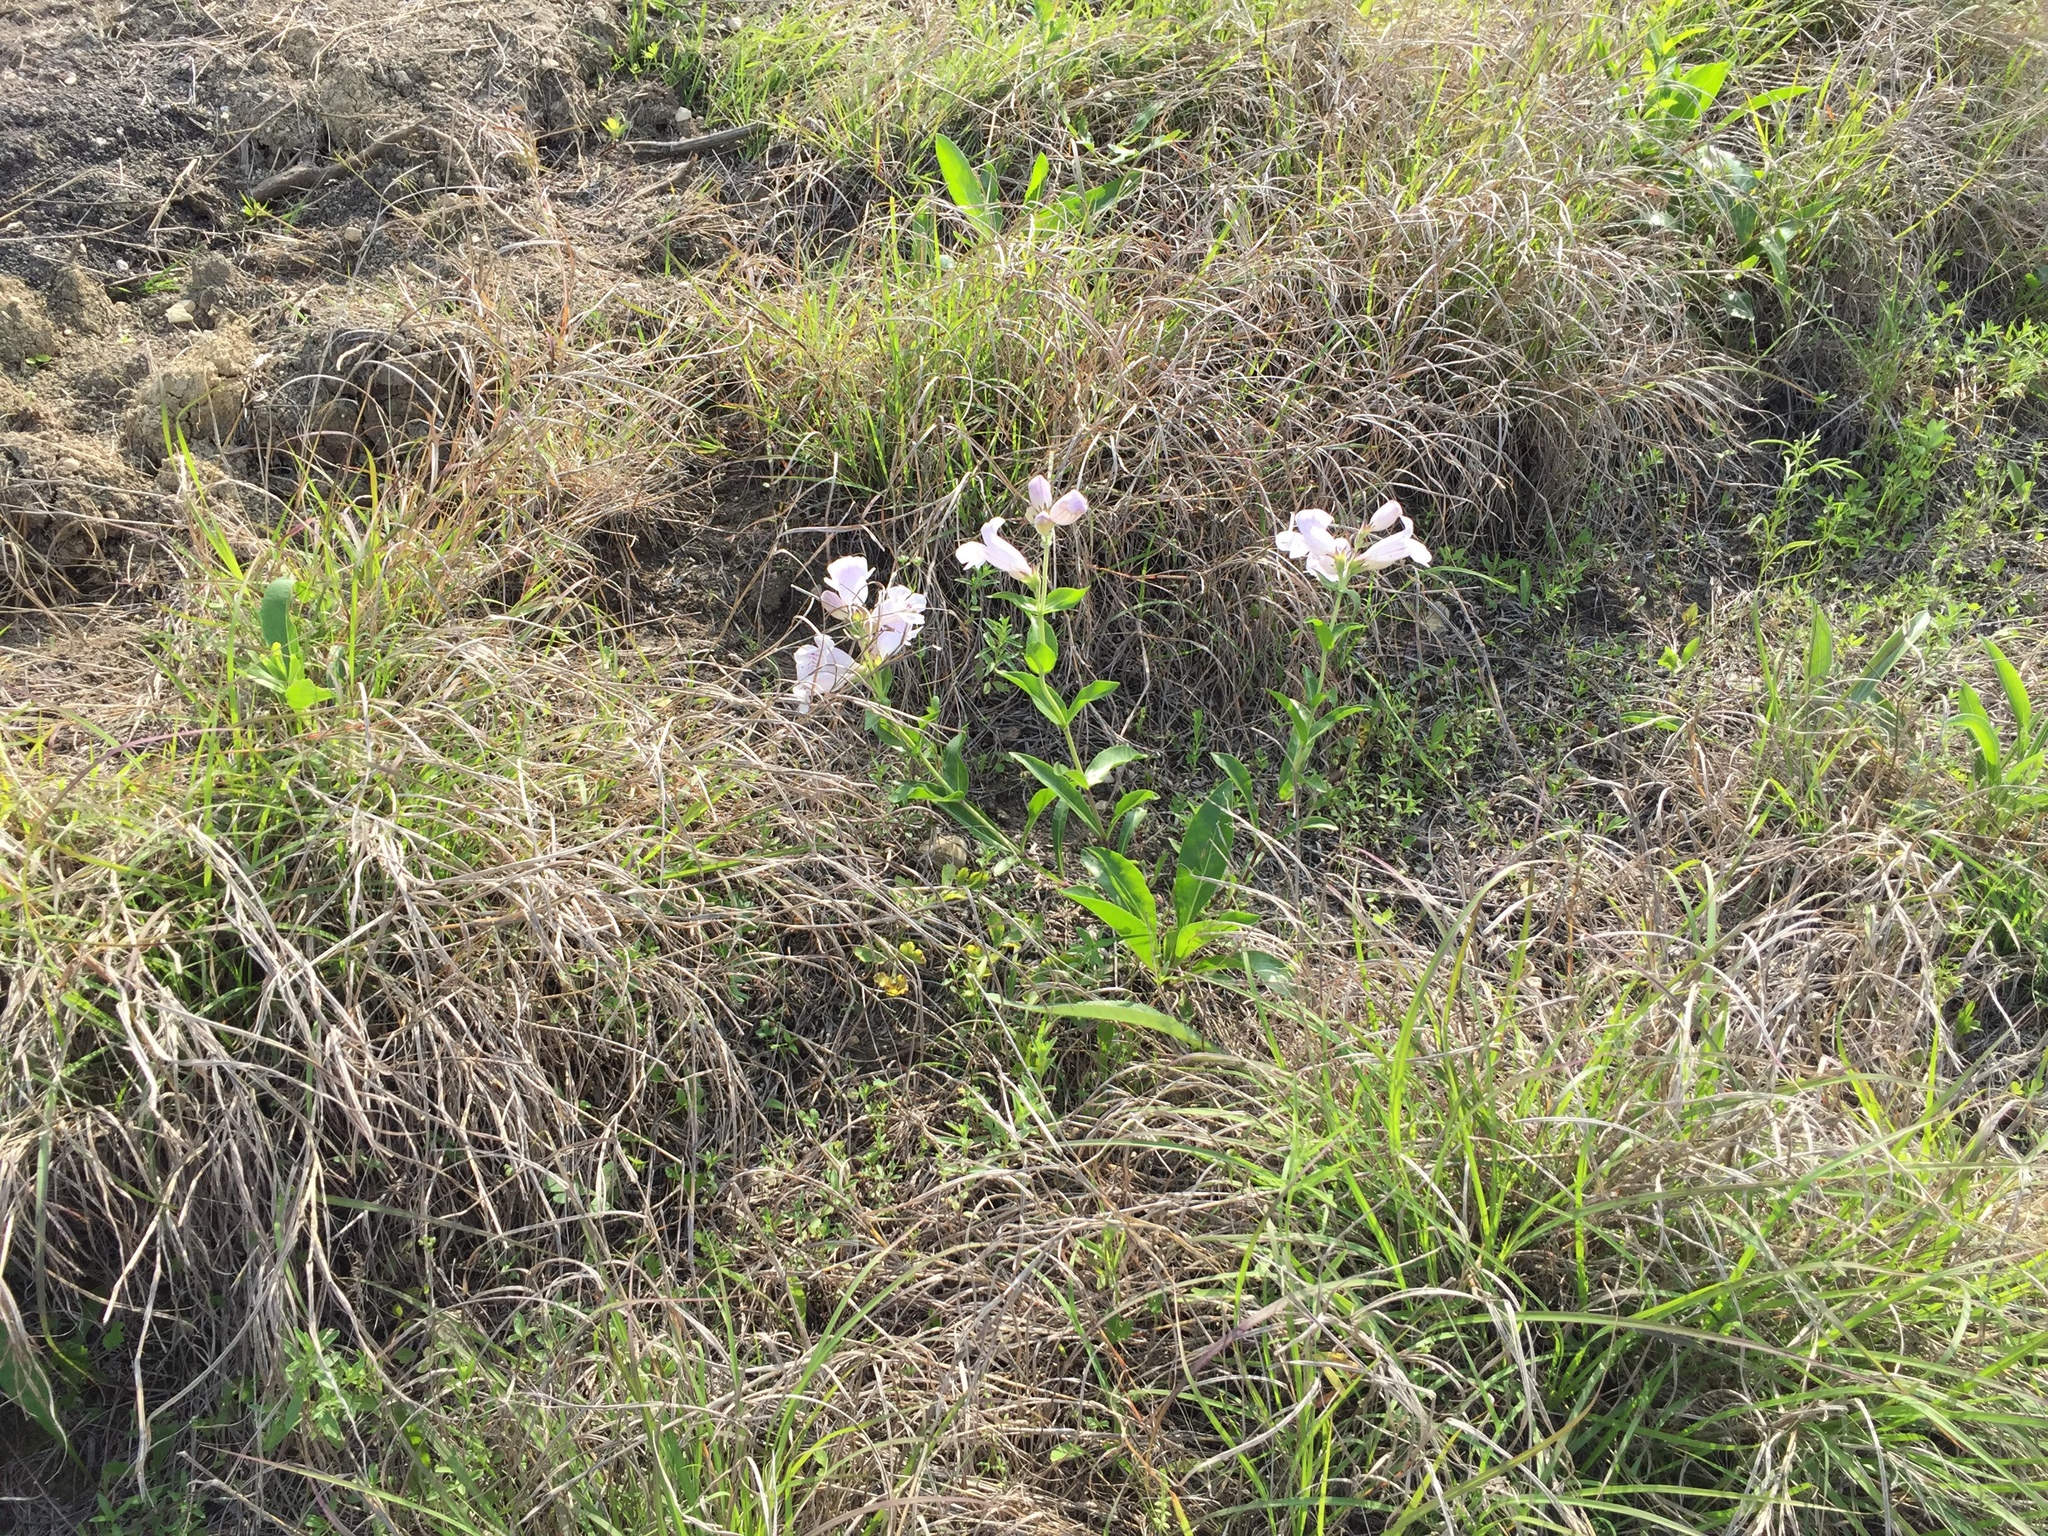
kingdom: Plantae
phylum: Tracheophyta
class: Magnoliopsida
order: Lamiales
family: Plantaginaceae
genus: Penstemon
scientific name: Penstemon cobaea
